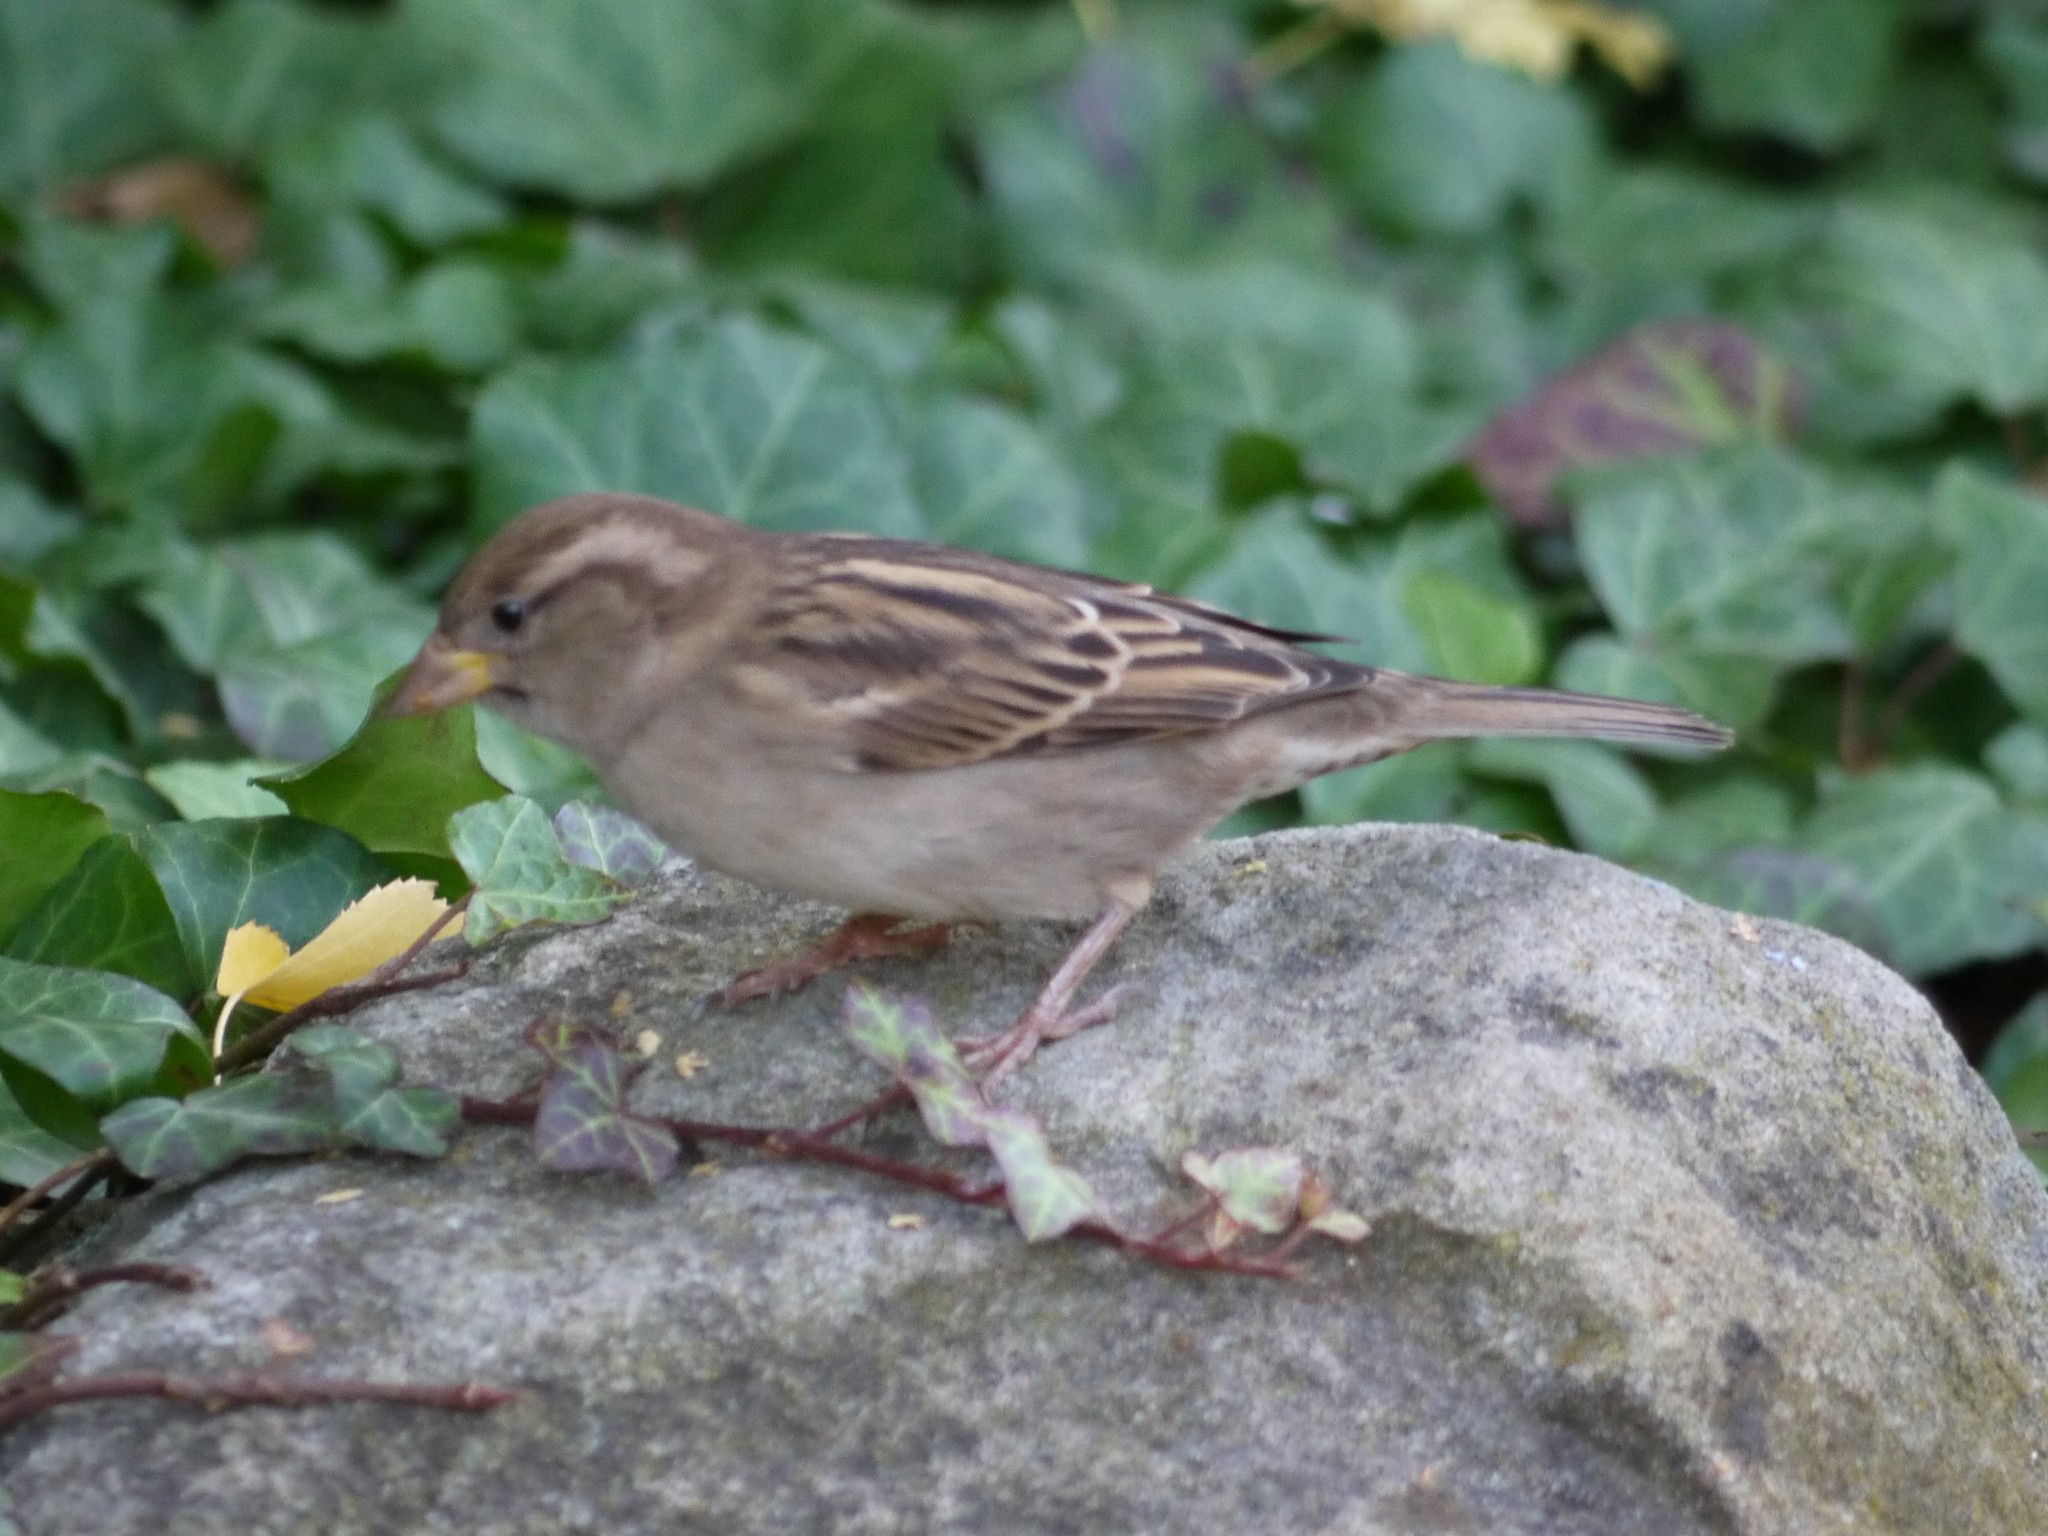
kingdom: Animalia
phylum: Chordata
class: Aves
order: Passeriformes
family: Passeridae
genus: Passer
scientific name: Passer domesticus
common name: House sparrow
